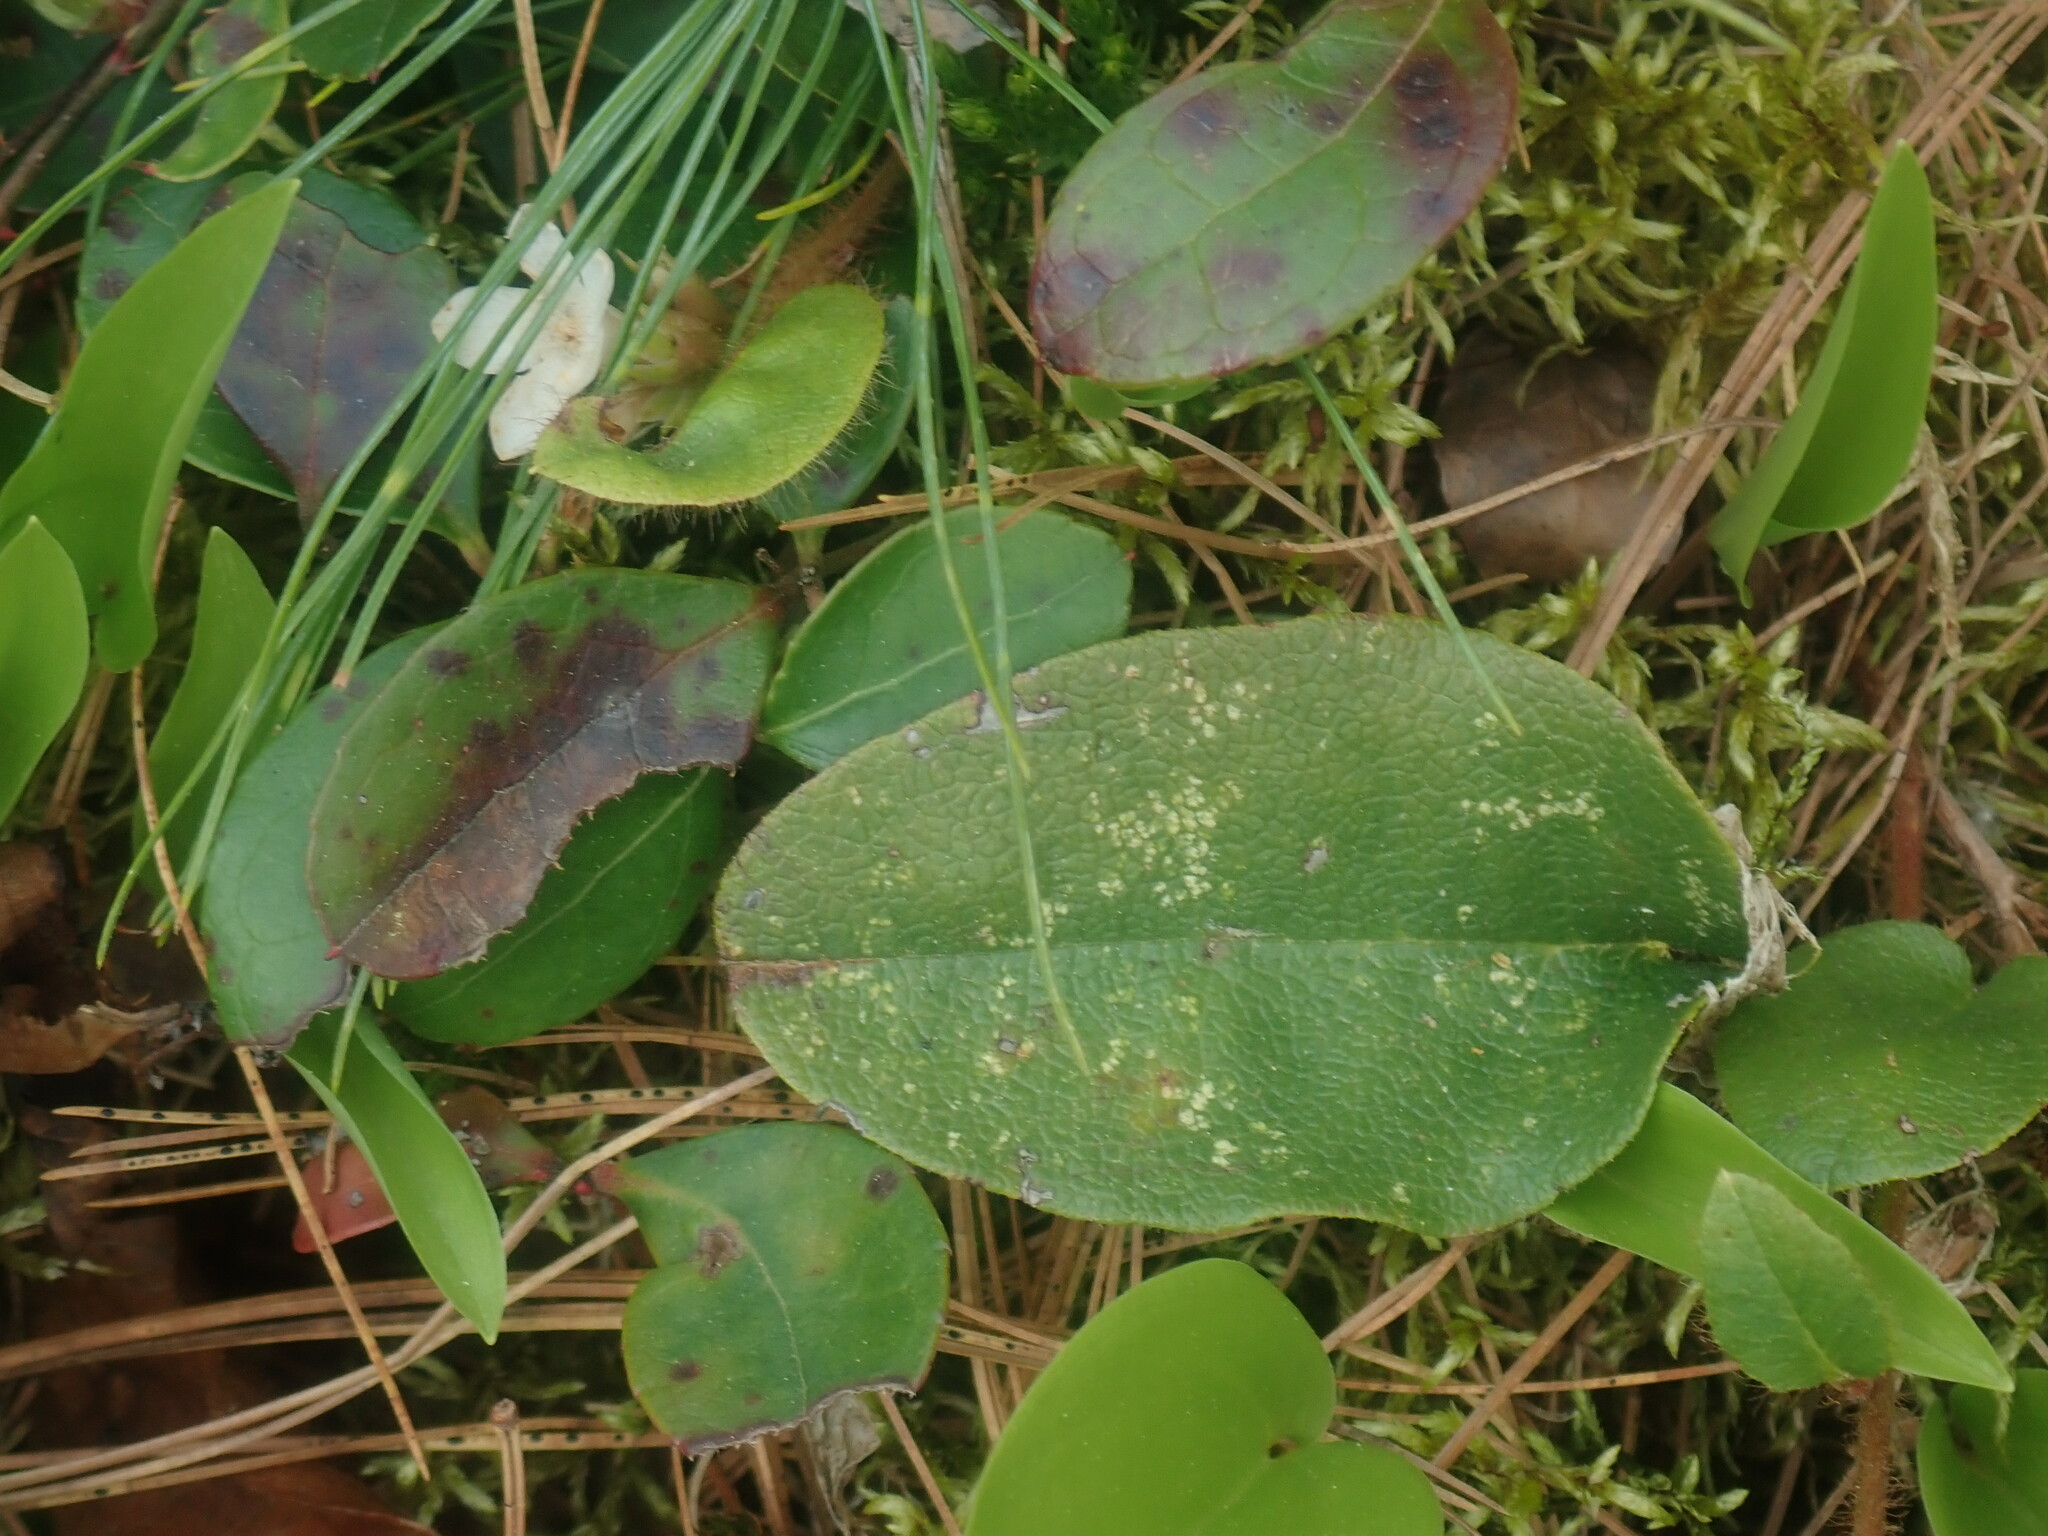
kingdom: Plantae
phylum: Tracheophyta
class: Magnoliopsida
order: Ericales
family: Ericaceae
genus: Epigaea
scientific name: Epigaea repens
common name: Gravelroot
